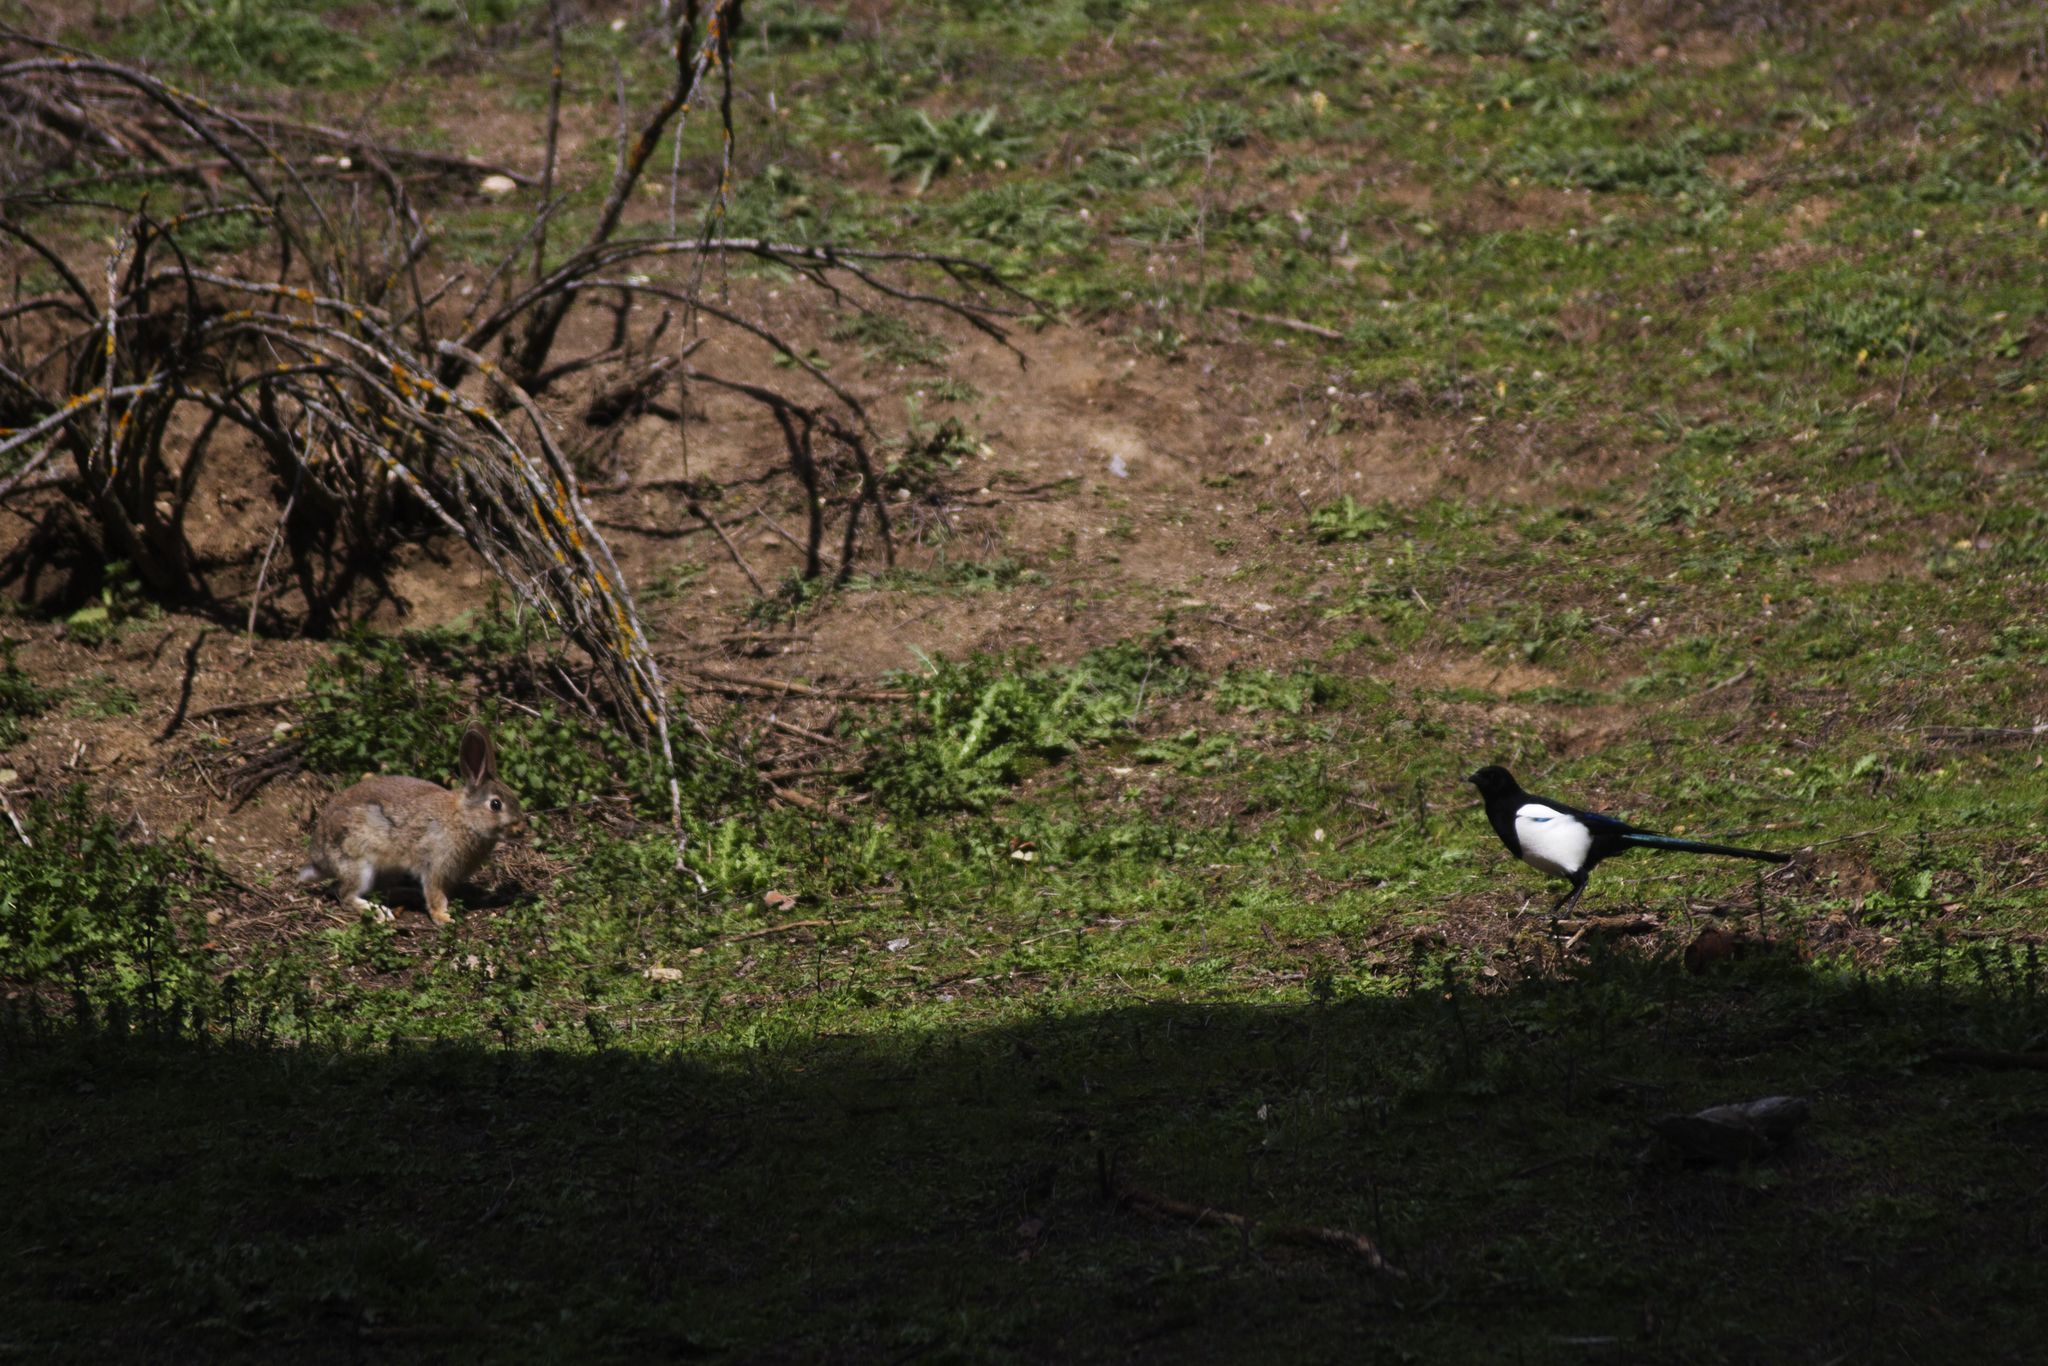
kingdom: Animalia
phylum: Chordata
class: Aves
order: Passeriformes
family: Corvidae
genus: Pica
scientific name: Pica pica
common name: Eurasian magpie
